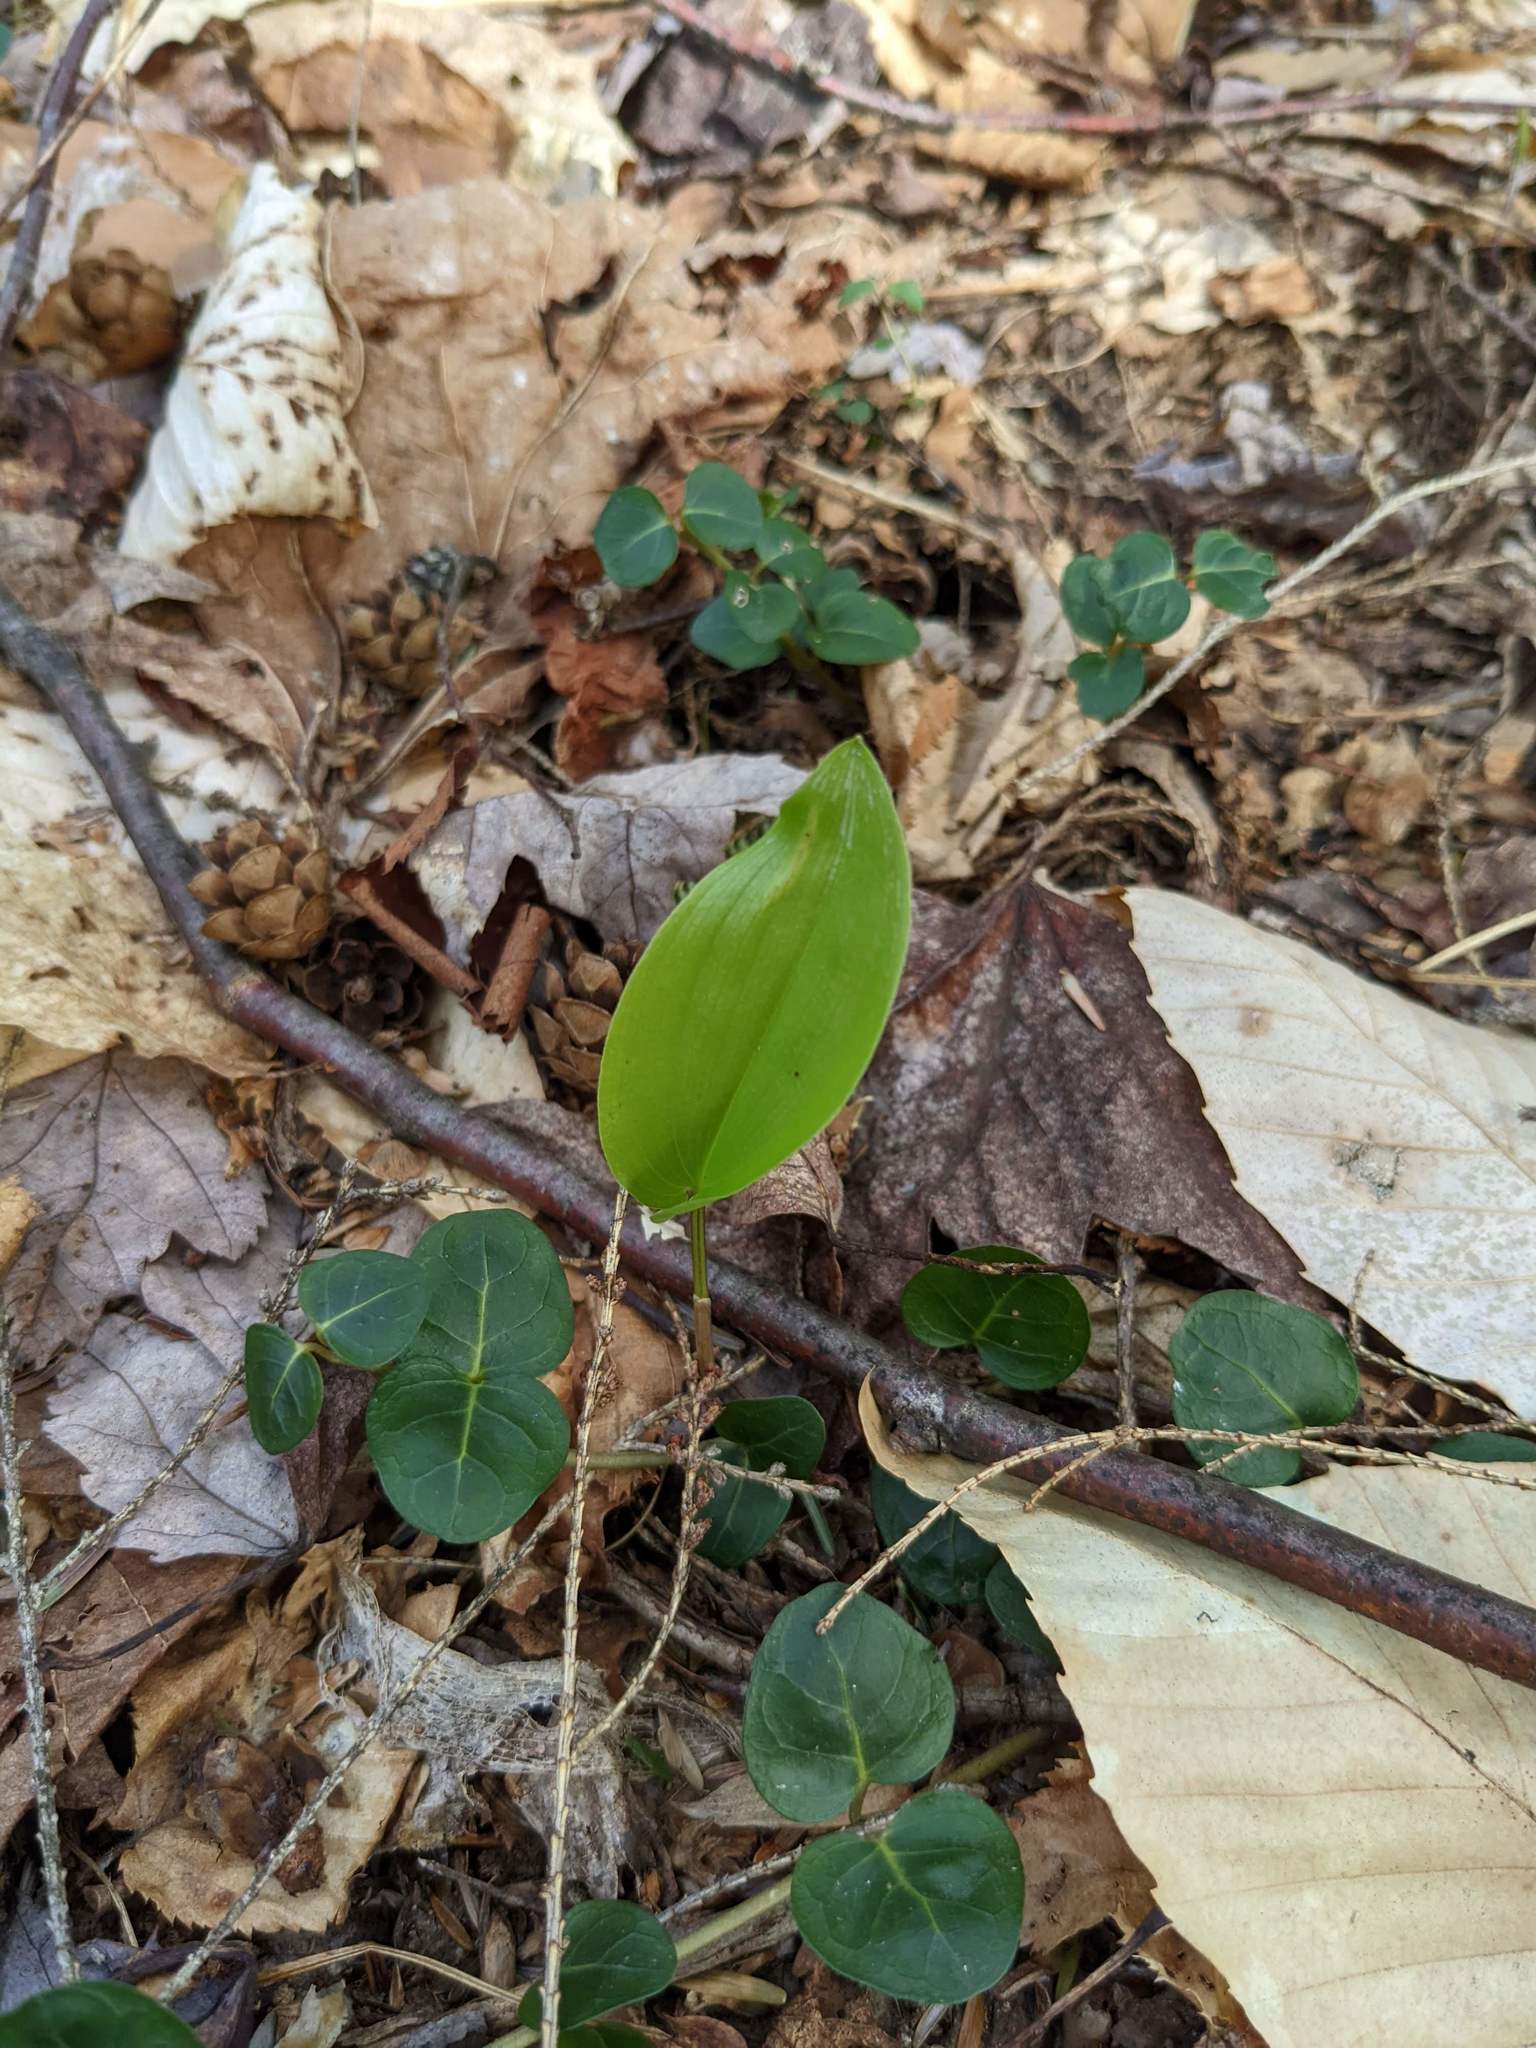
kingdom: Plantae
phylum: Tracheophyta
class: Liliopsida
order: Asparagales
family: Asparagaceae
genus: Maianthemum
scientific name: Maianthemum canadense
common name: False lily-of-the-valley
